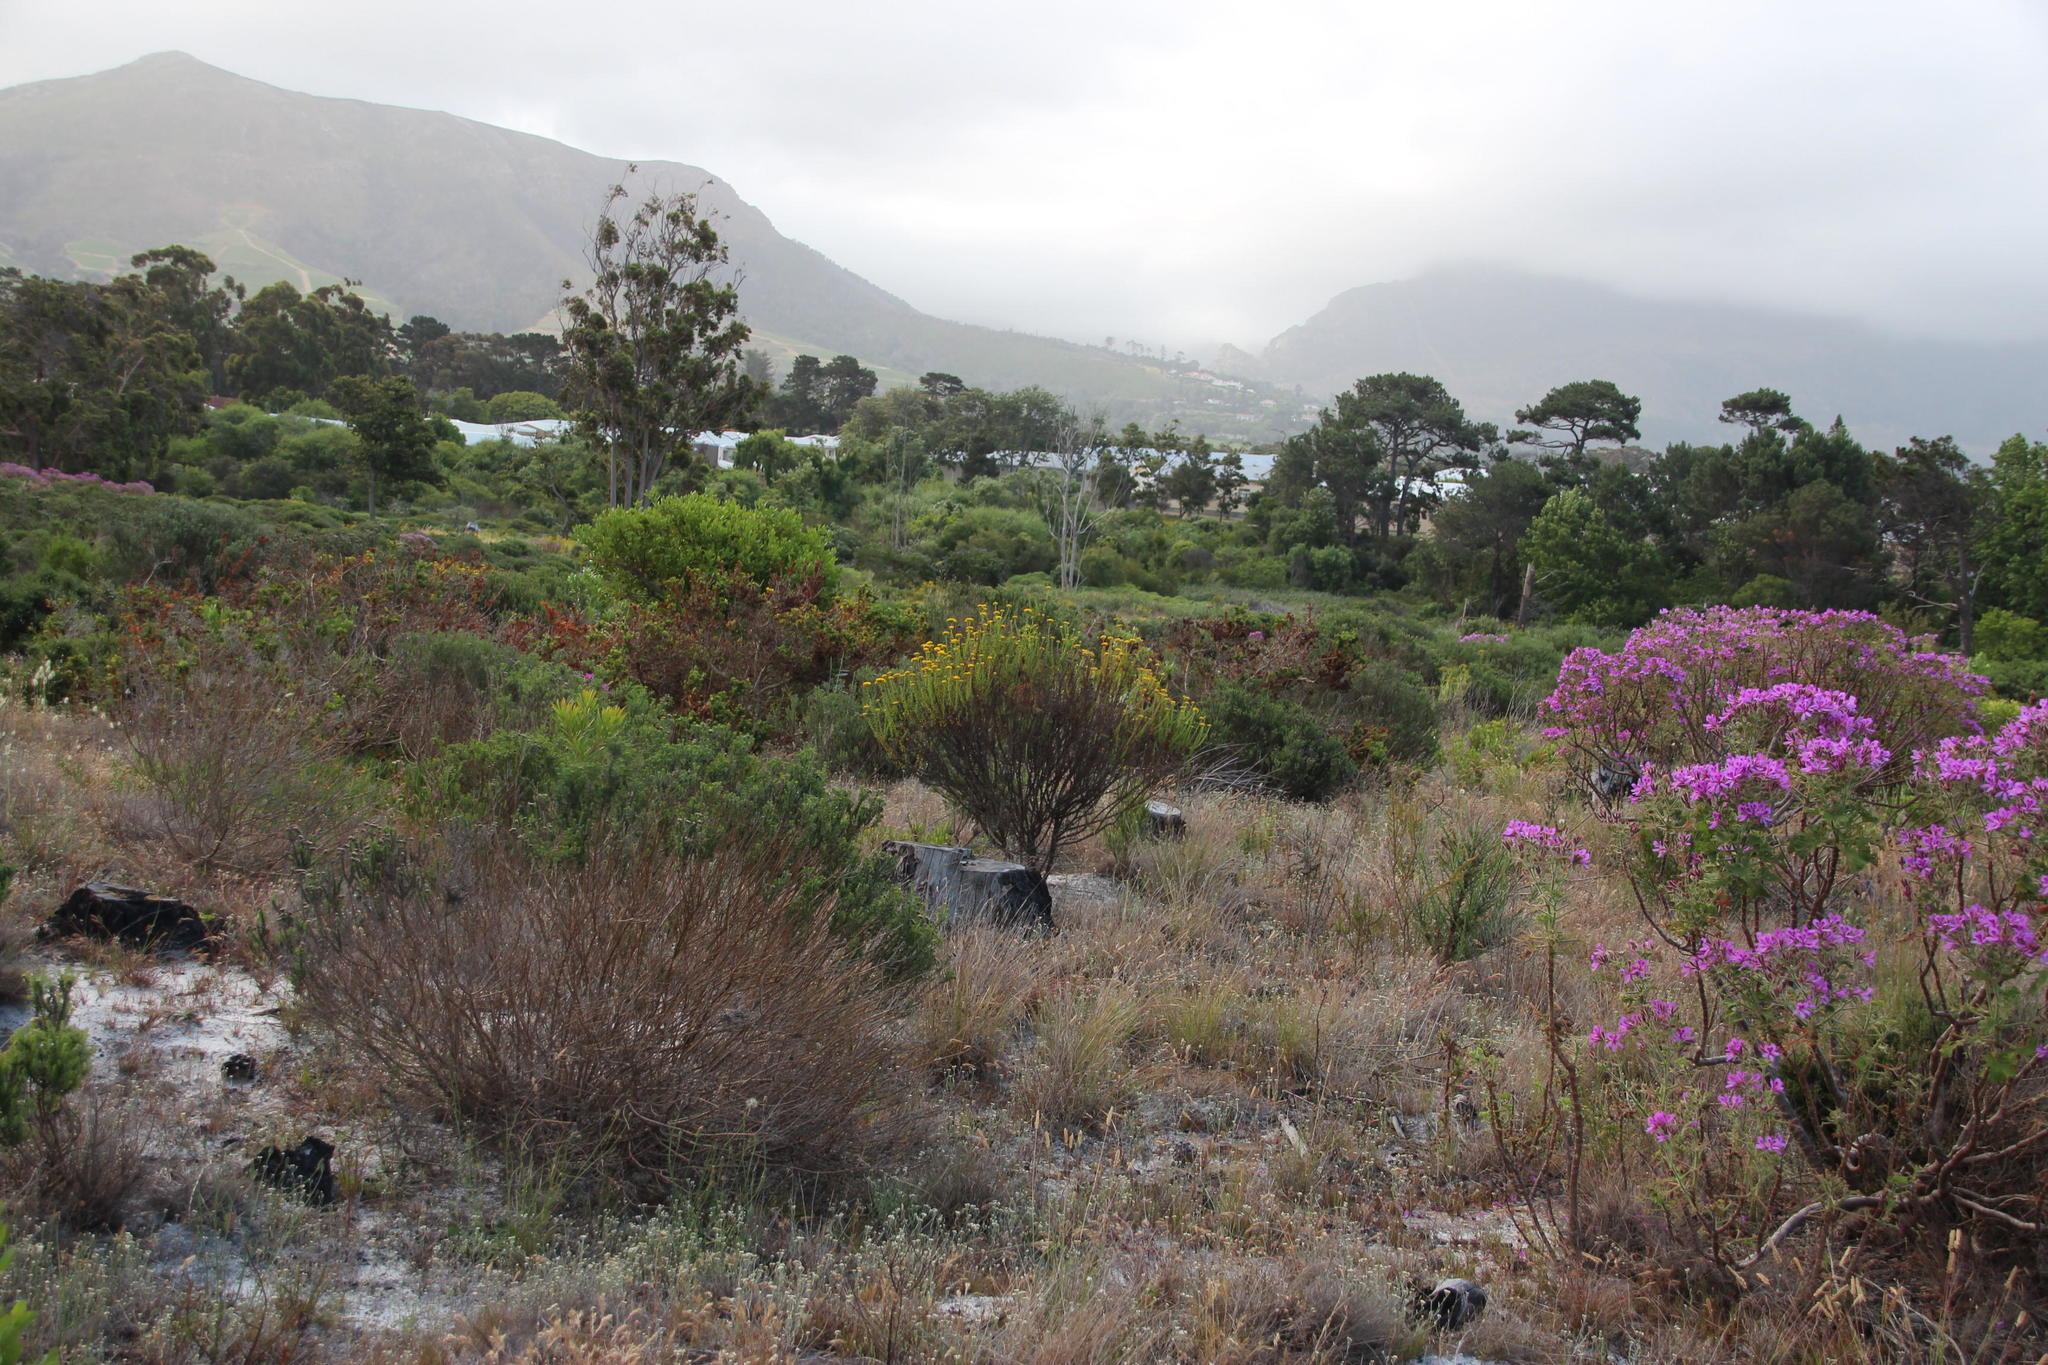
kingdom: Plantae
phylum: Tracheophyta
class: Magnoliopsida
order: Asterales
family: Asteraceae
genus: Athanasia
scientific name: Athanasia dentata
